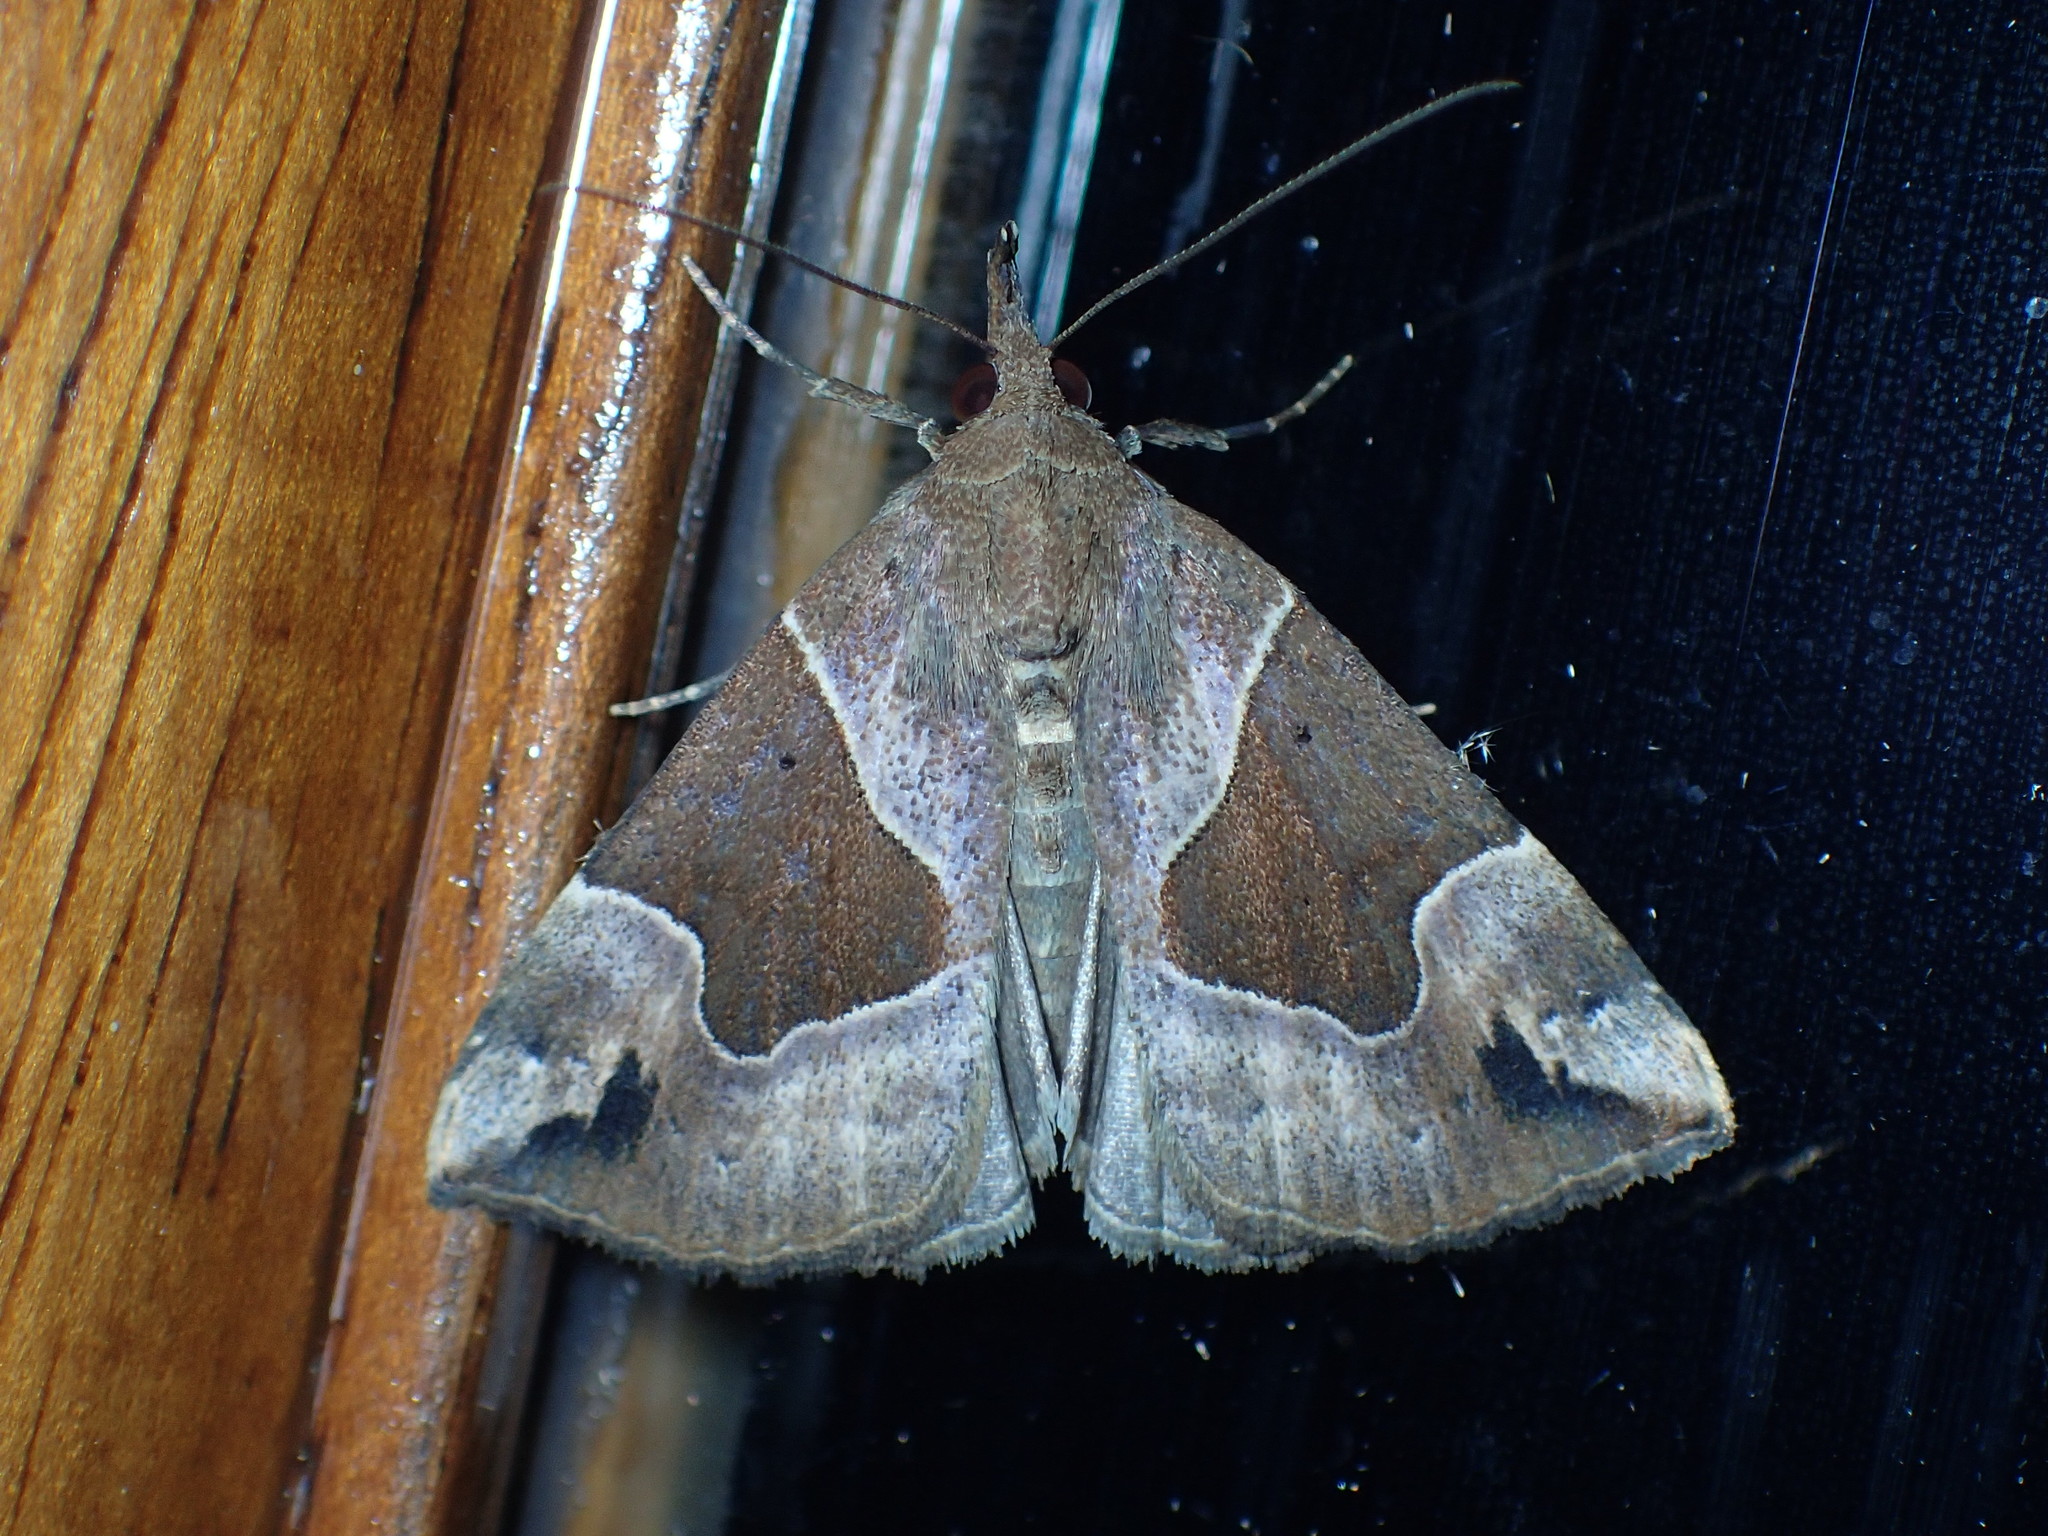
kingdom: Animalia
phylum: Arthropoda
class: Insecta
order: Lepidoptera
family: Erebidae
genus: Hypena
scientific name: Hypena manalis
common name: Flowing-line bomolocha moth
